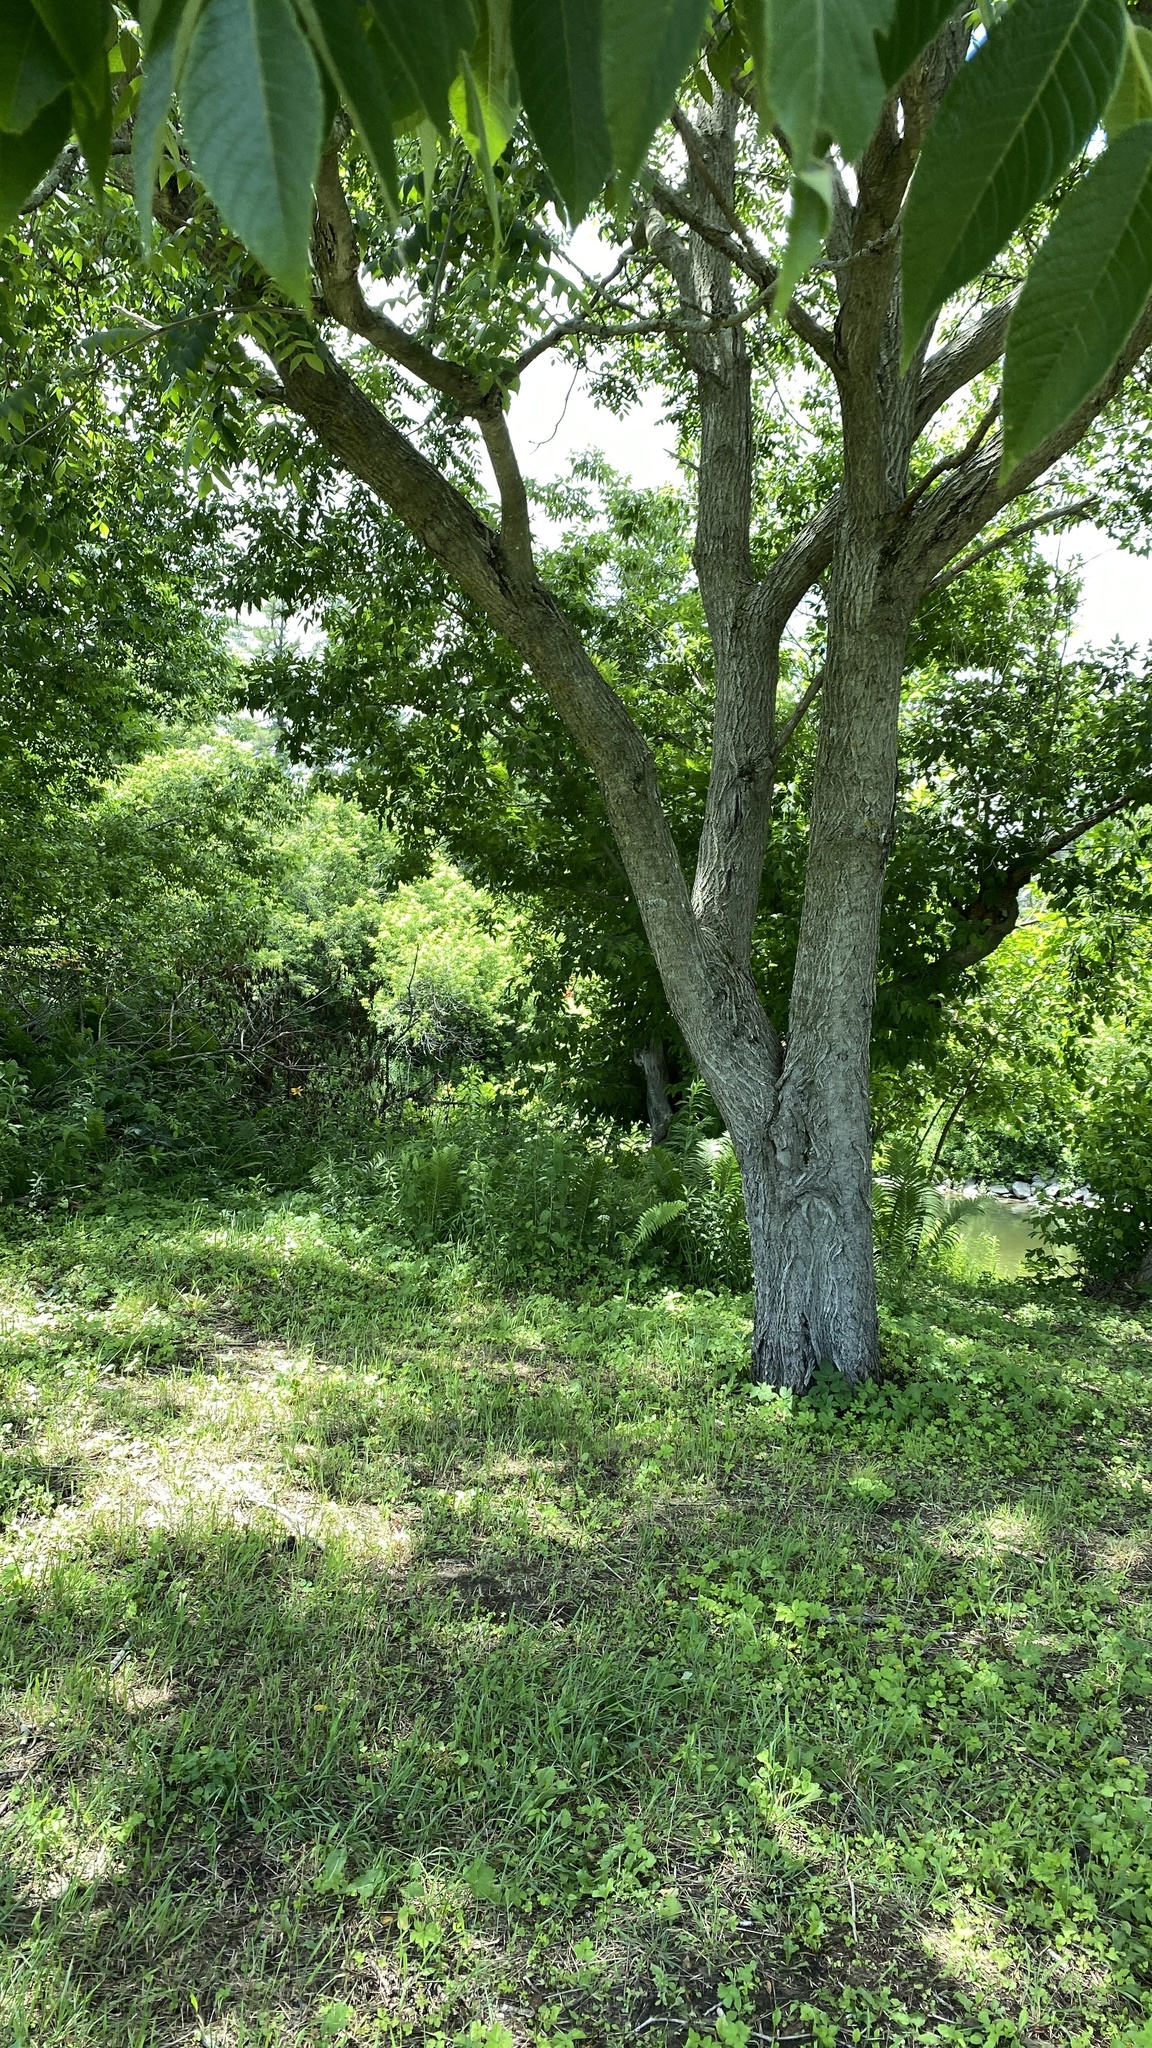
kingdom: Plantae
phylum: Tracheophyta
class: Magnoliopsida
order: Fagales
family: Juglandaceae
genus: Juglans
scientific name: Juglans cinerea
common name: Butternut
